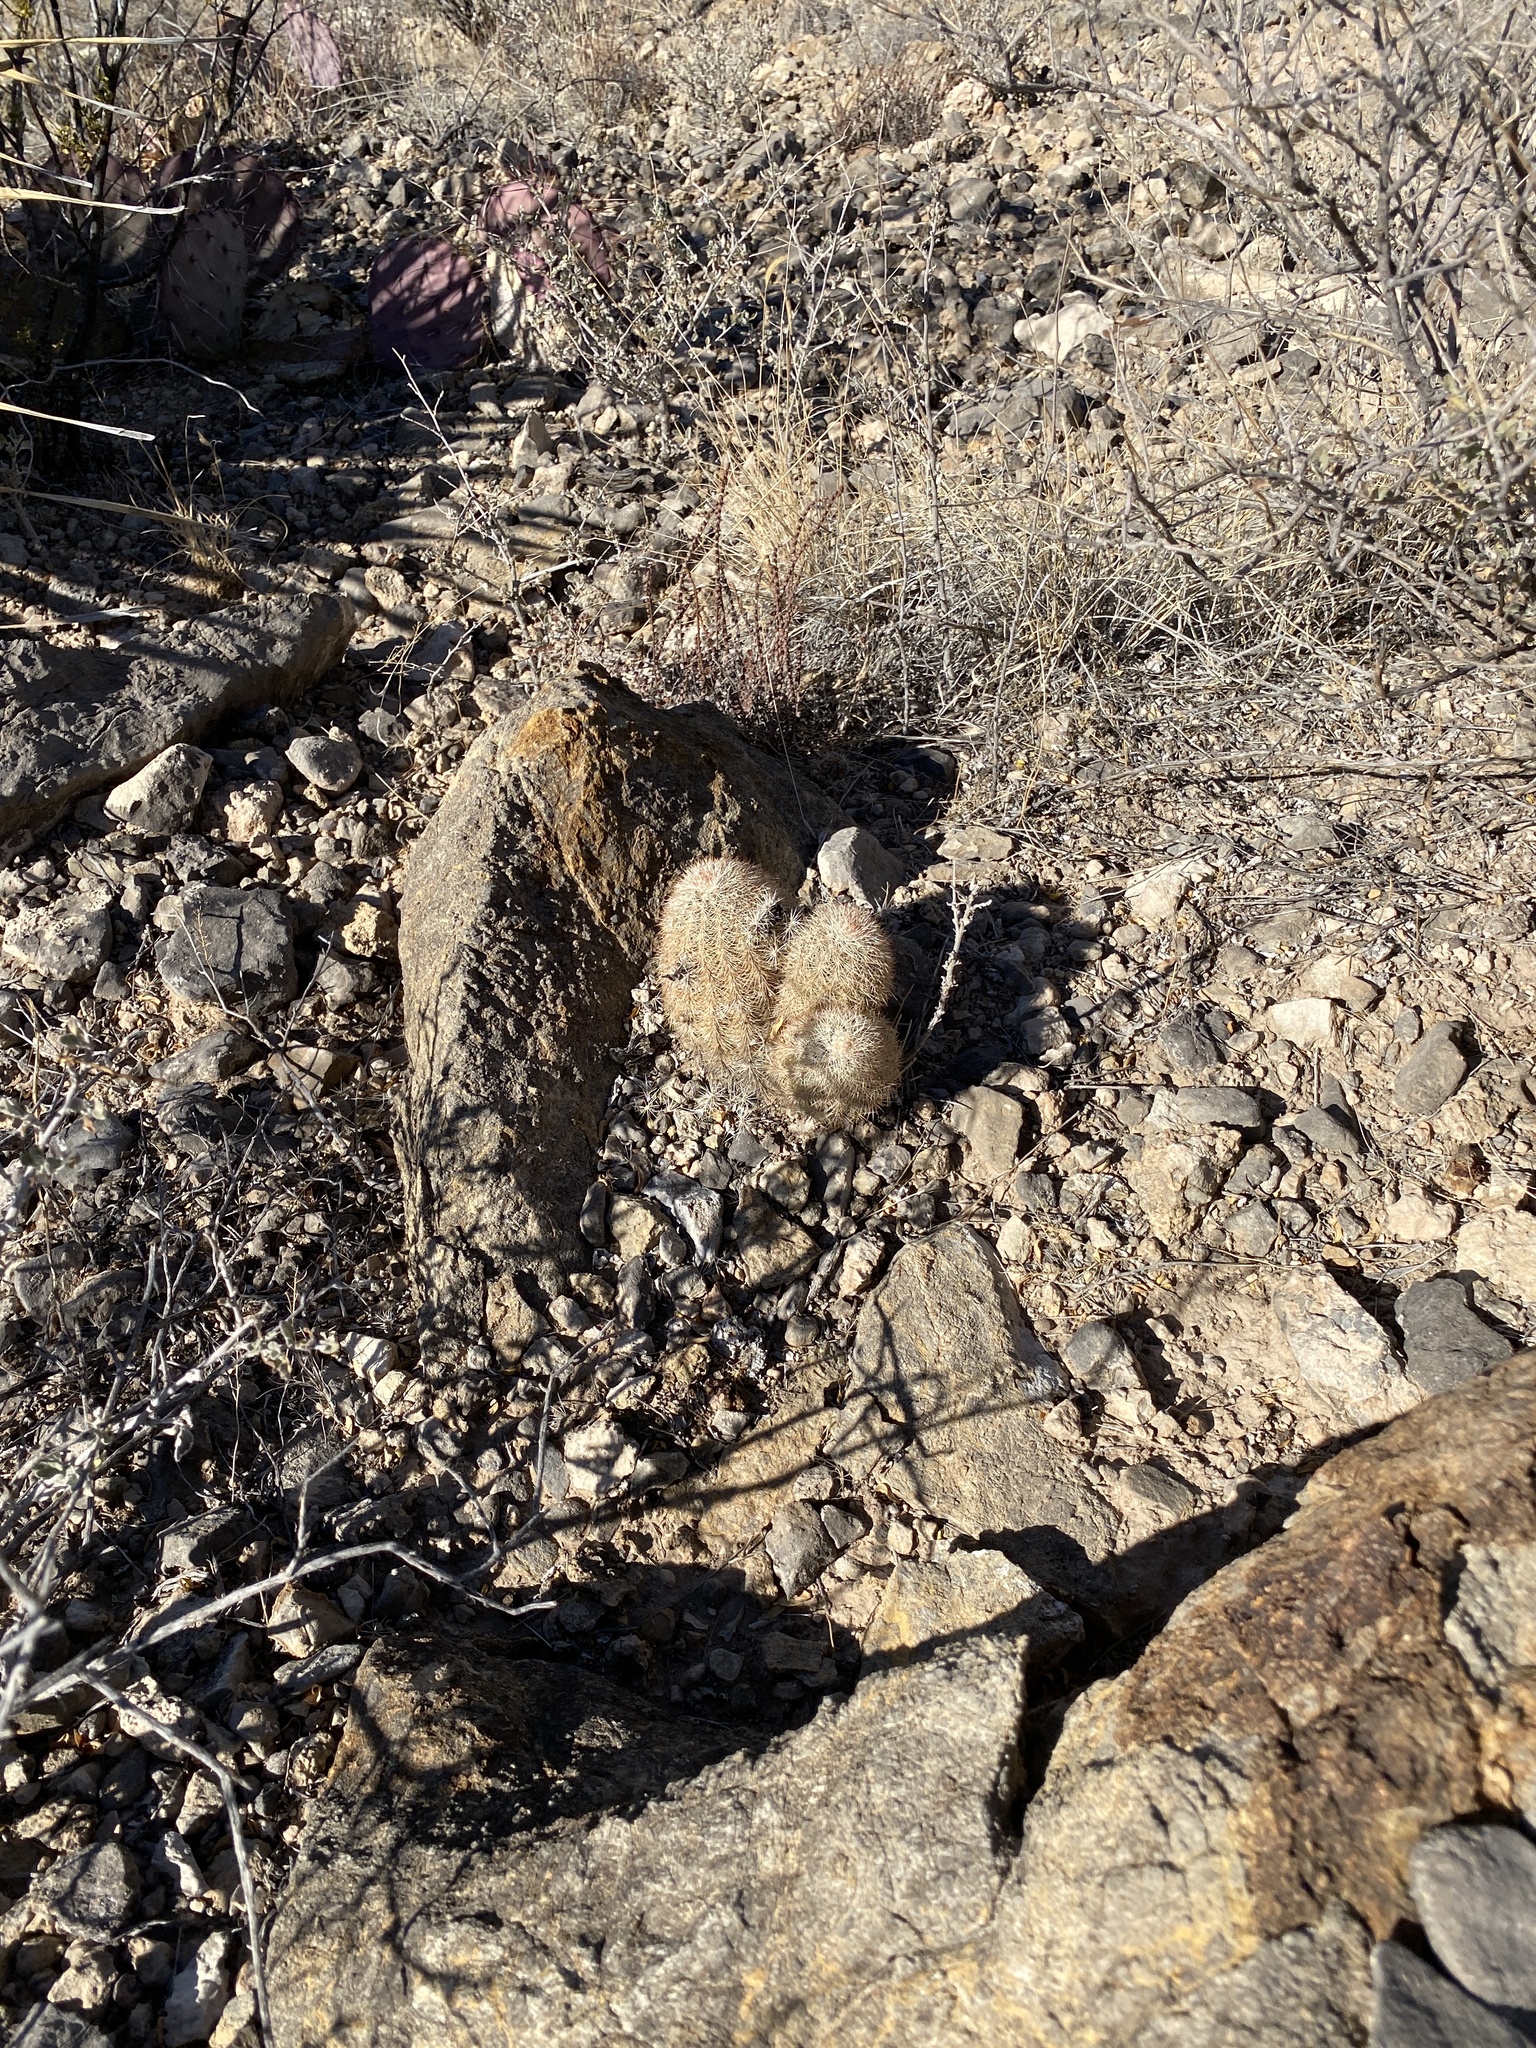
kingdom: Plantae
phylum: Tracheophyta
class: Magnoliopsida
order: Caryophyllales
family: Cactaceae
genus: Echinocereus
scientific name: Echinocereus dasyacanthus
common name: Spiny hedgehog cactus
